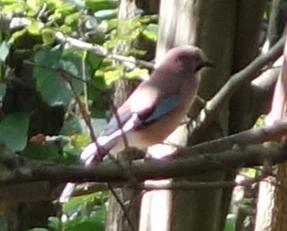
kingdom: Animalia
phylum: Chordata
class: Aves
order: Passeriformes
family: Corvidae
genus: Garrulus
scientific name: Garrulus glandarius
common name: Eurasian jay
